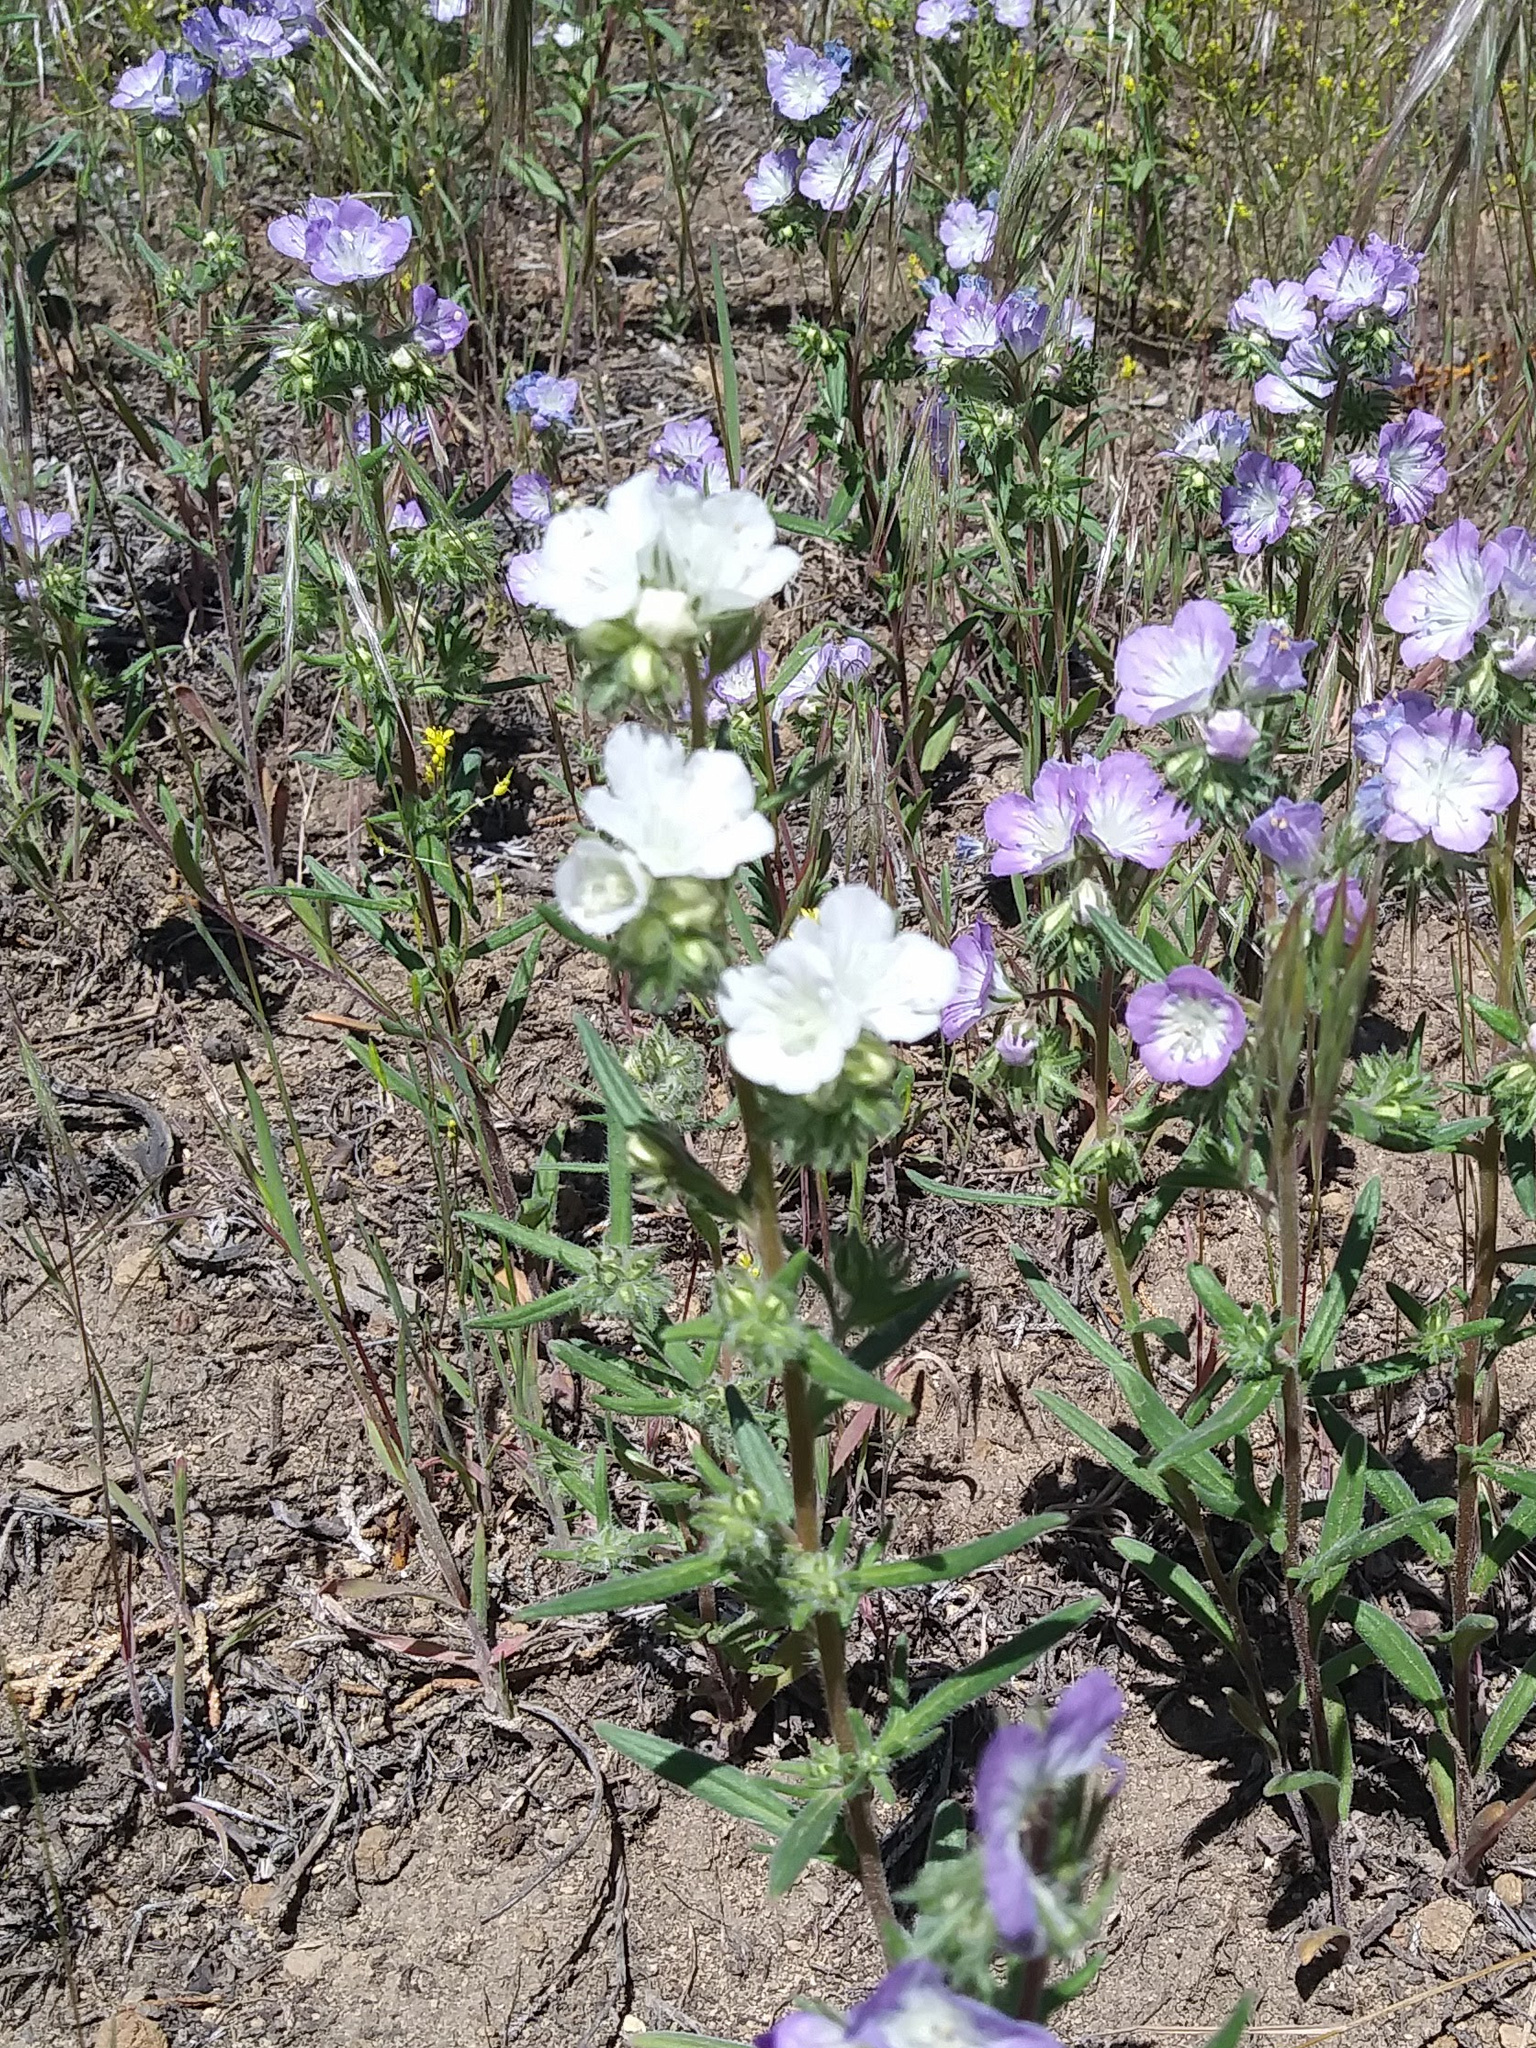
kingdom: Plantae
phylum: Tracheophyta
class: Magnoliopsida
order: Boraginales
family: Hydrophyllaceae
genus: Phacelia
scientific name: Phacelia linearis
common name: Linear-leaved phacelia
